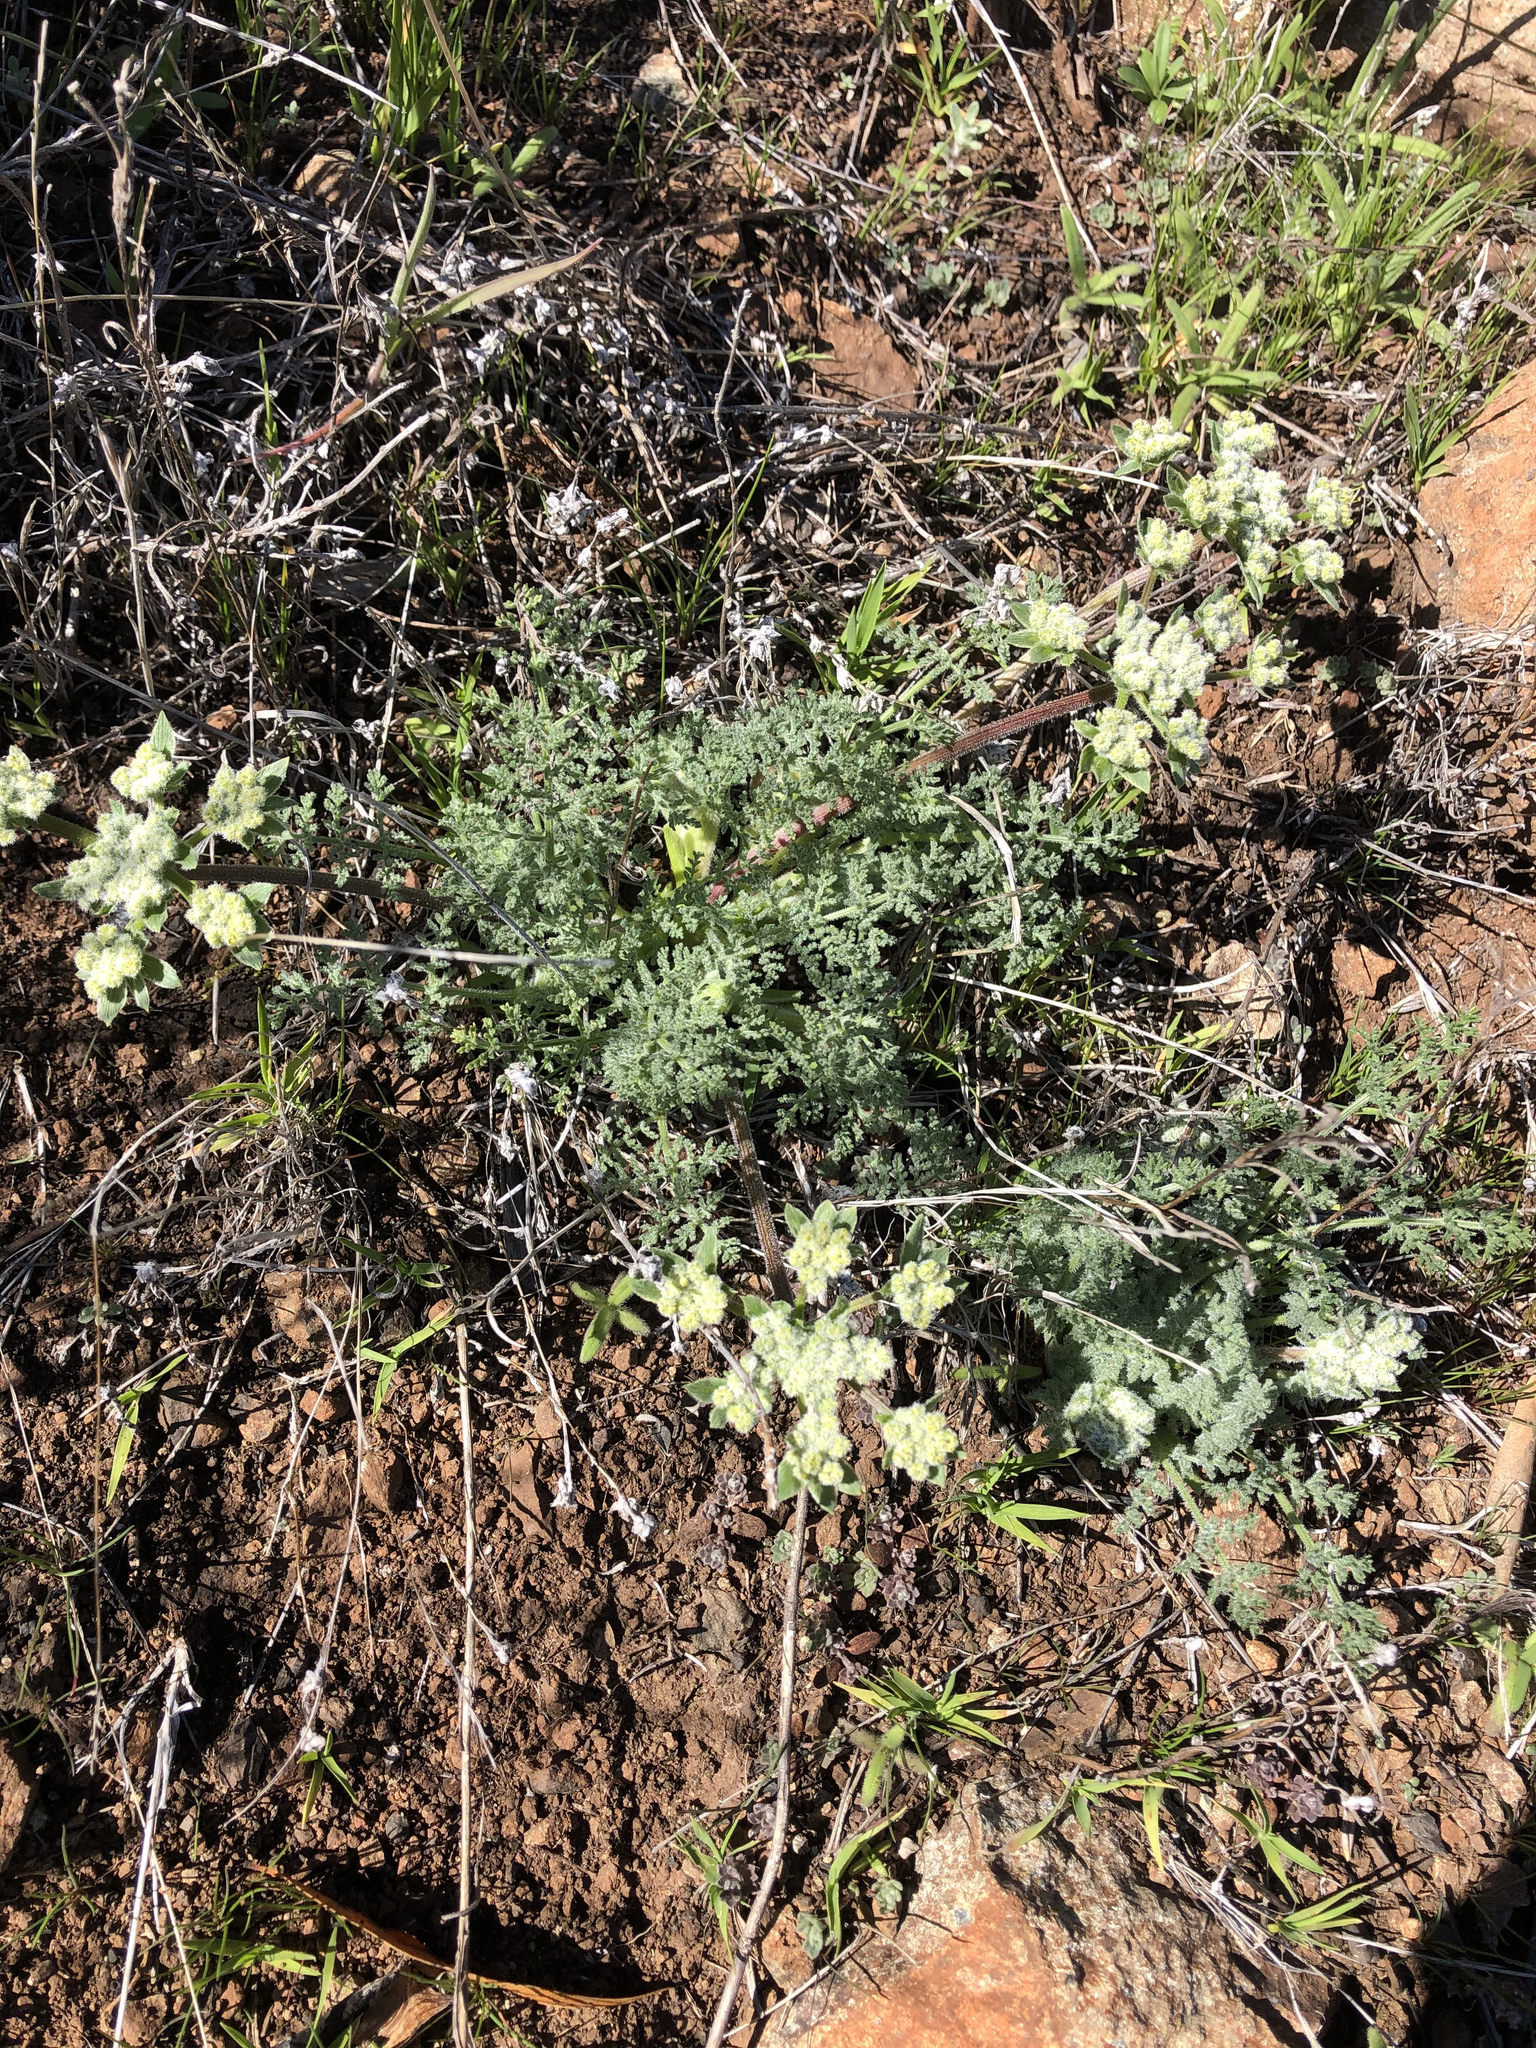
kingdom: Plantae
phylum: Tracheophyta
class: Magnoliopsida
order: Apiales
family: Apiaceae
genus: Lomatium
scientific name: Lomatium dasycarpum
